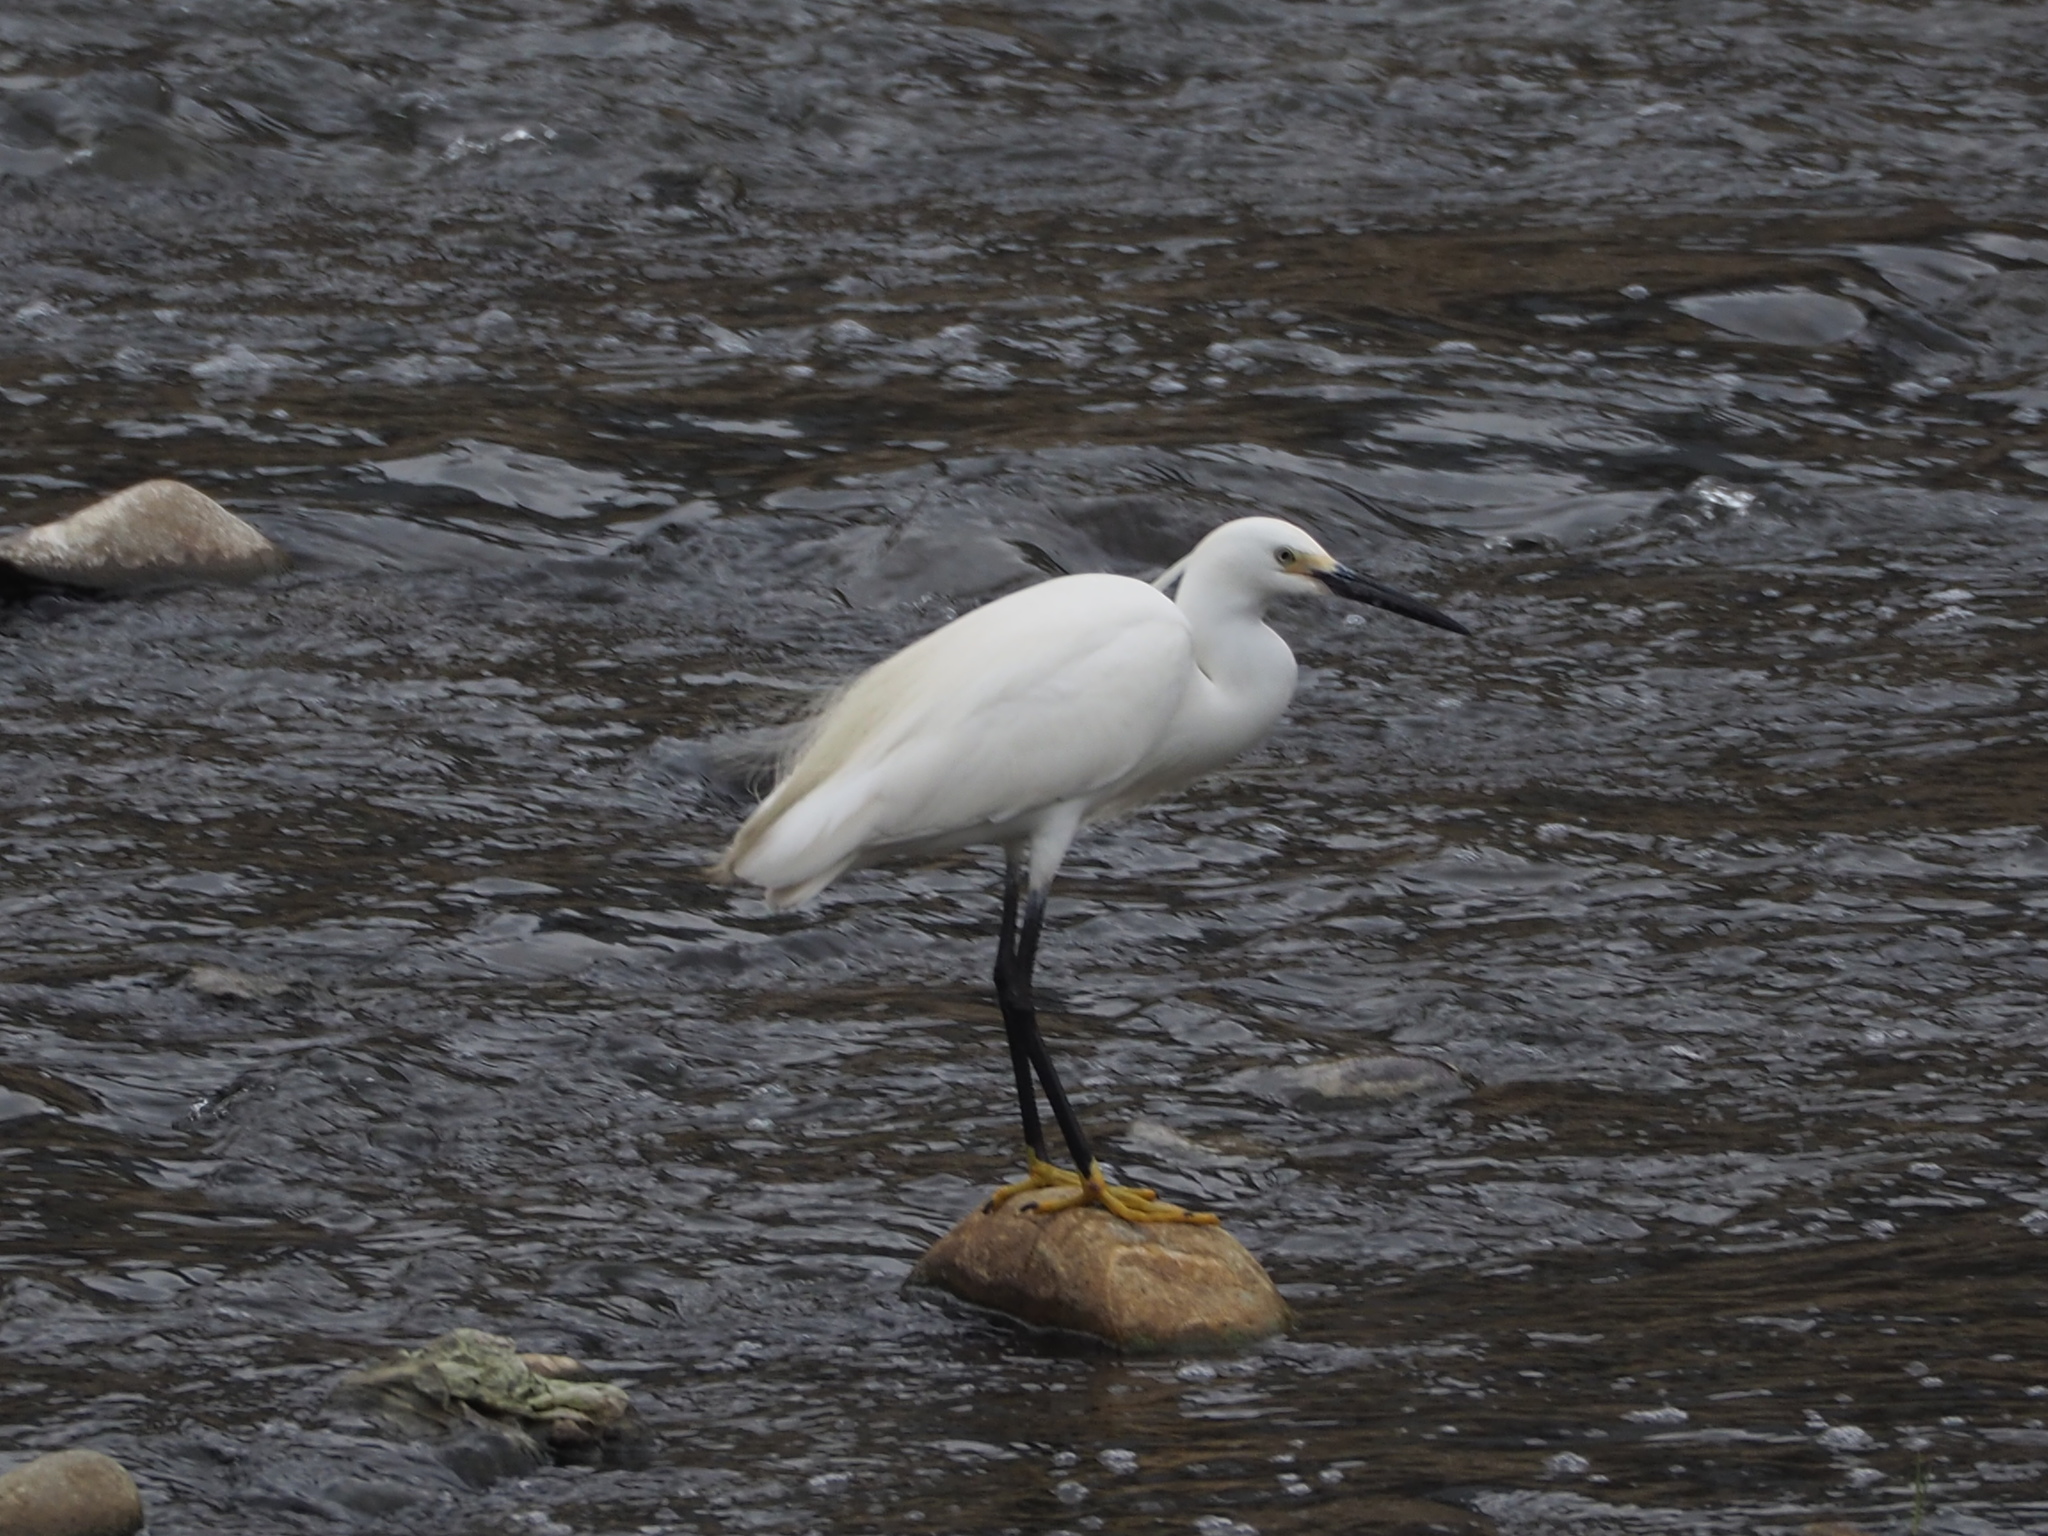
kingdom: Animalia
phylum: Chordata
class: Aves
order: Pelecaniformes
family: Ardeidae
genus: Egretta
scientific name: Egretta garzetta
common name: Little egret
